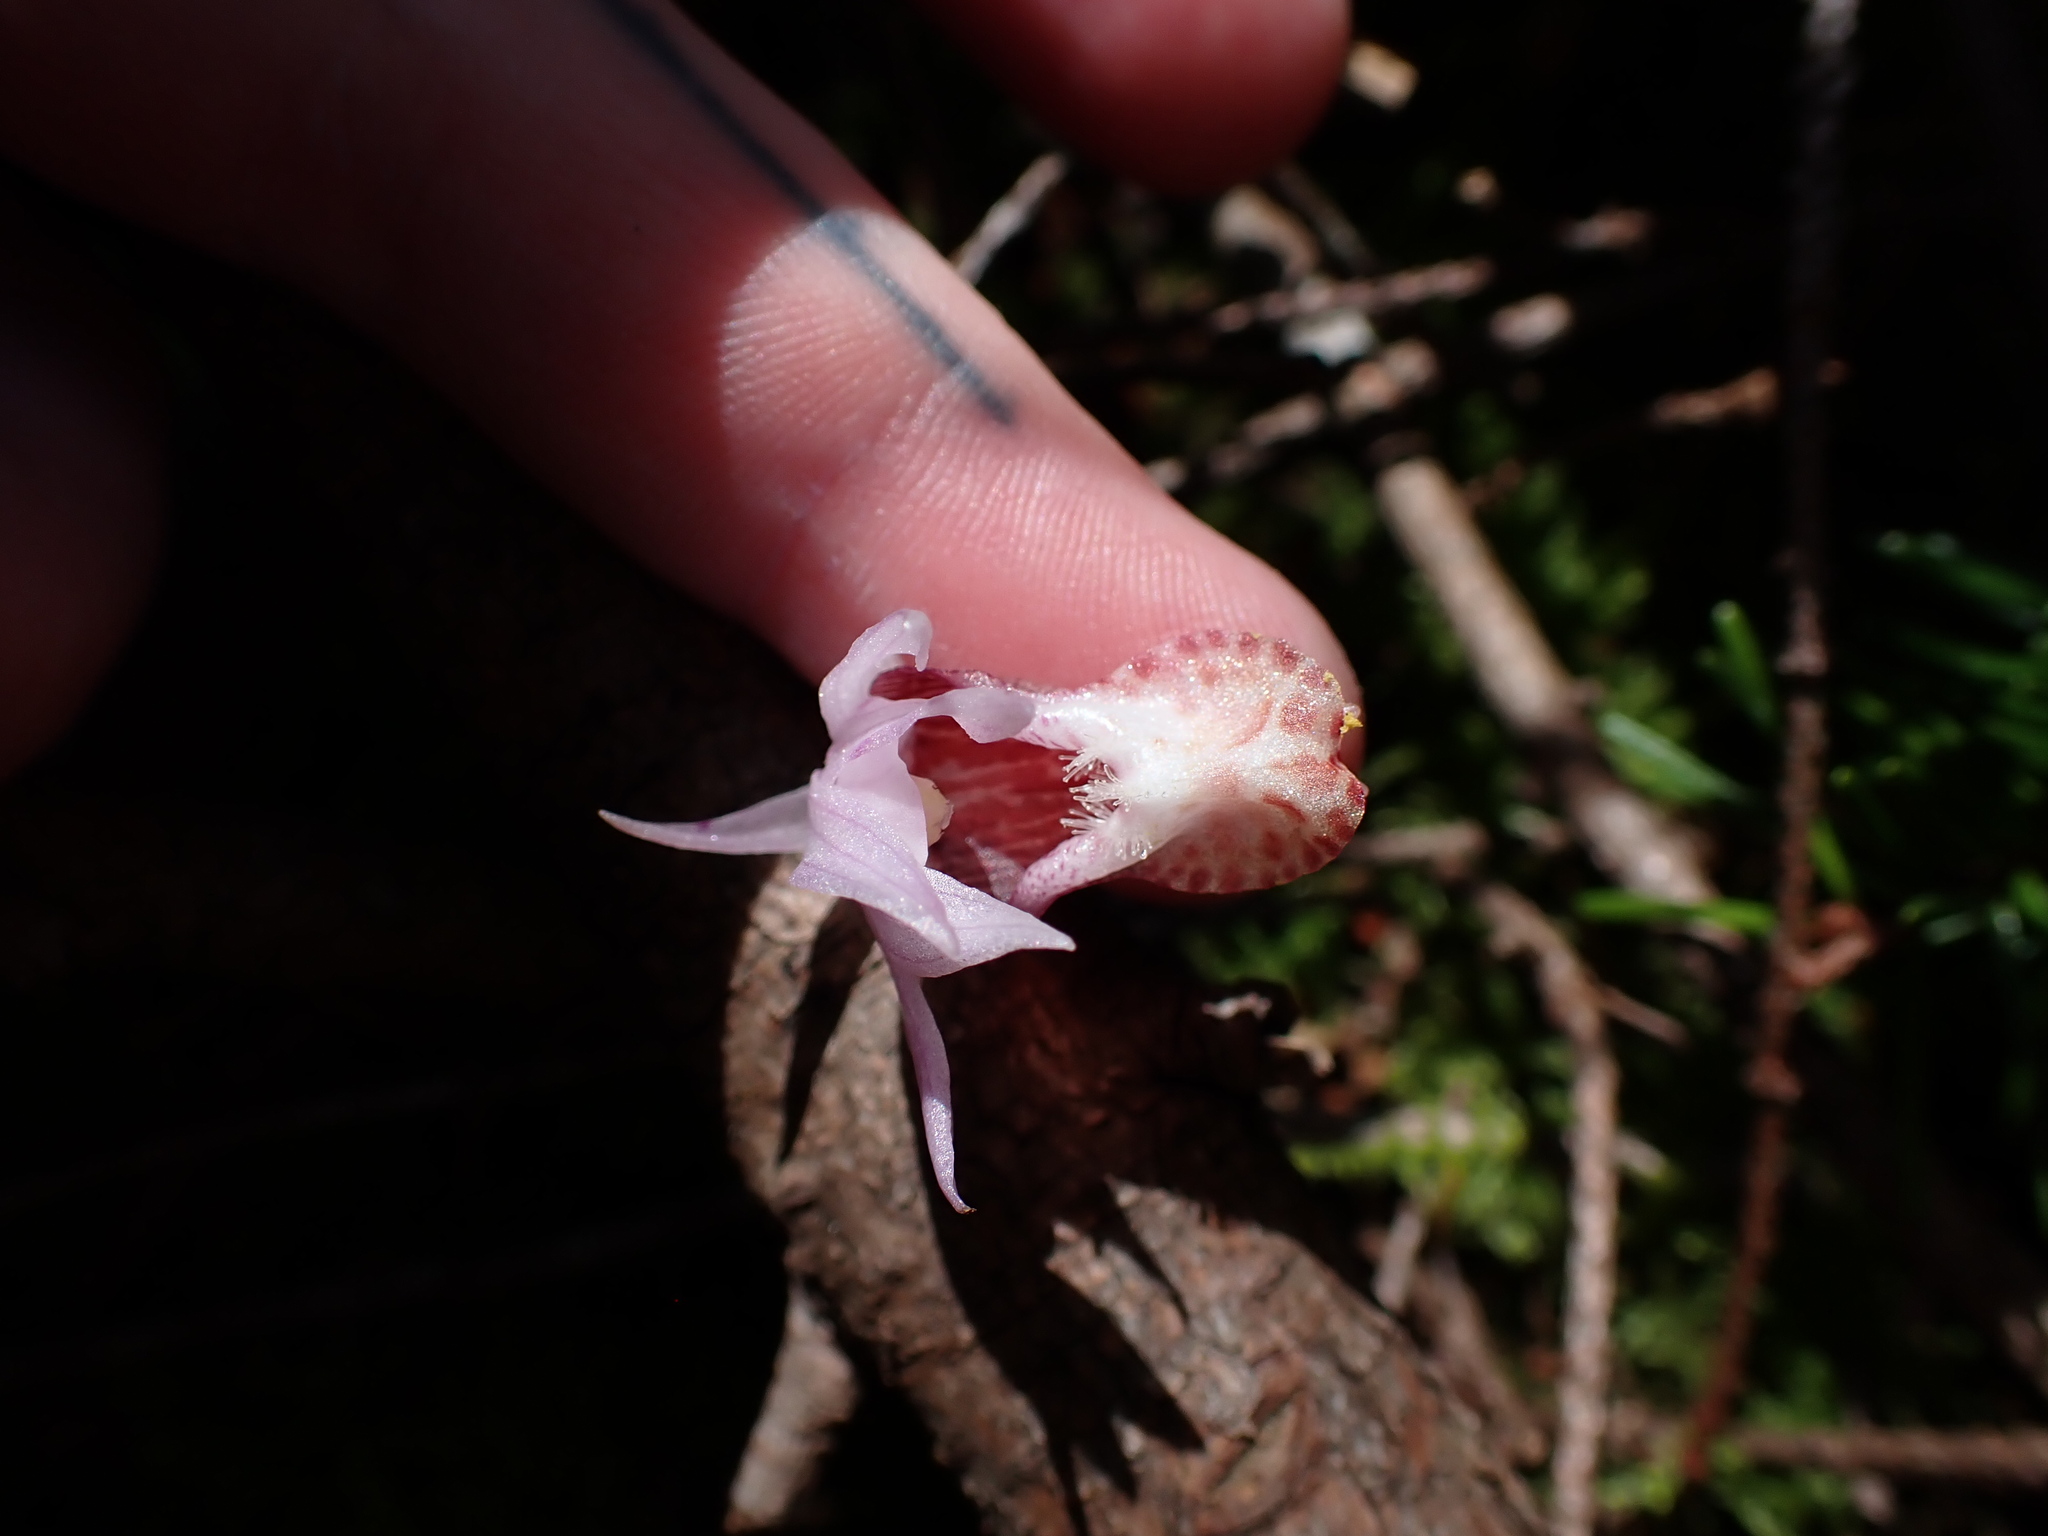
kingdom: Plantae
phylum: Tracheophyta
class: Liliopsida
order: Asparagales
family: Orchidaceae
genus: Calypso
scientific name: Calypso bulbosa
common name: Calypso
